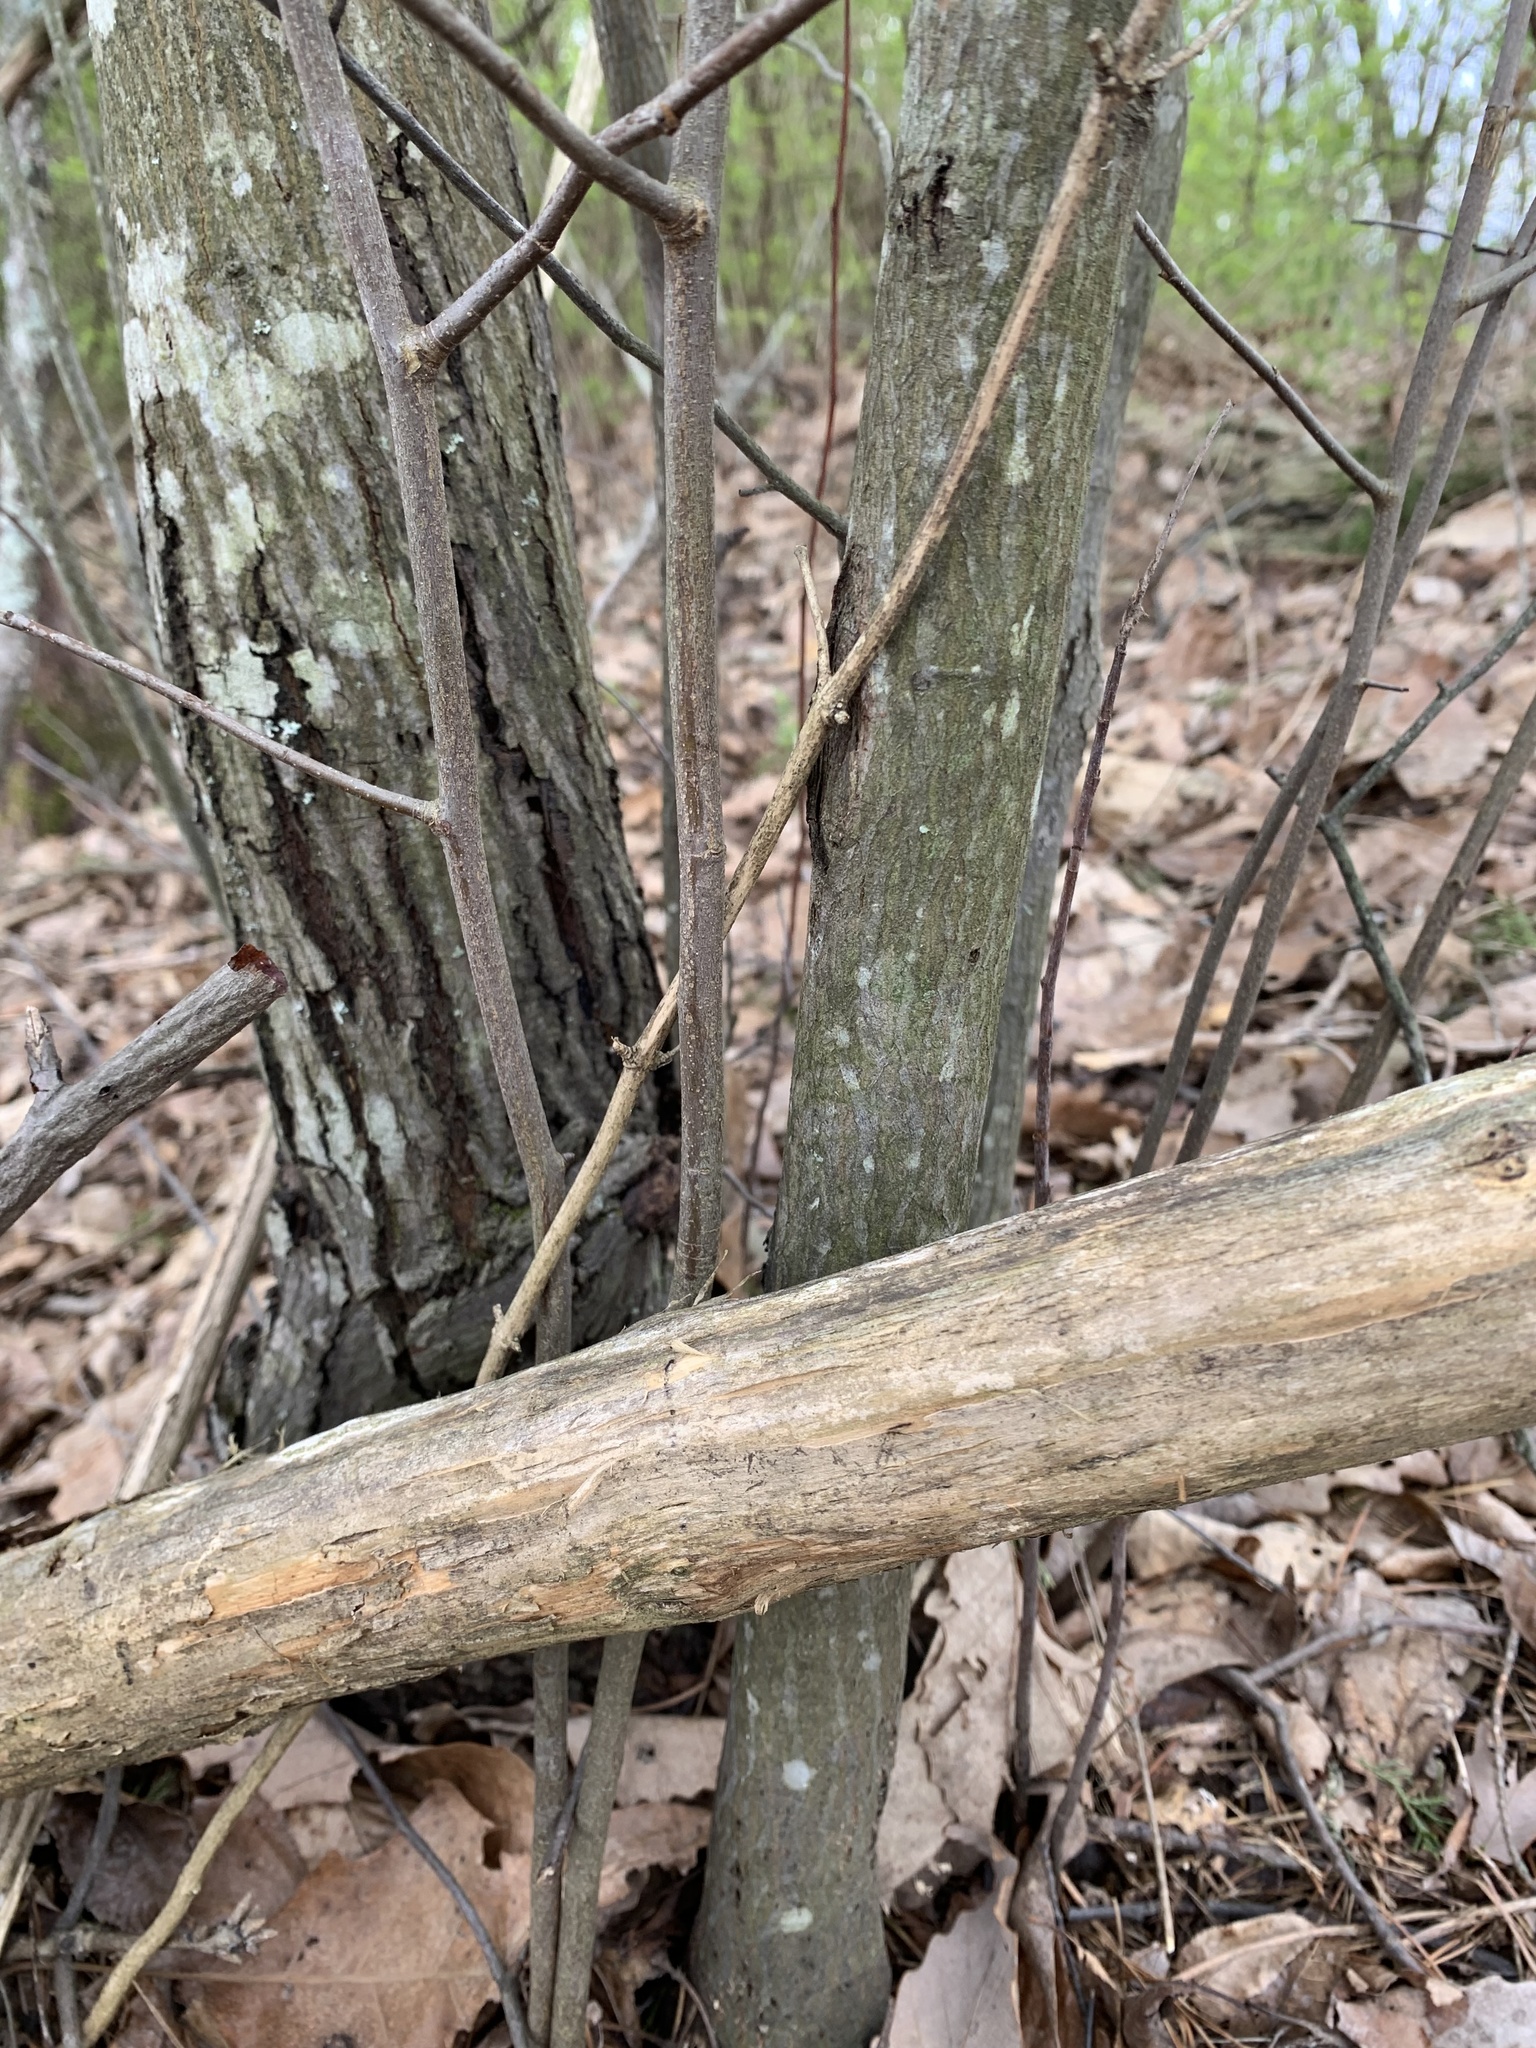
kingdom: Plantae
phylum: Tracheophyta
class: Magnoliopsida
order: Rosales
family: Rosaceae
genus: Amelanchier
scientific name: Amelanchier arborea
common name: Downy serviceberry
